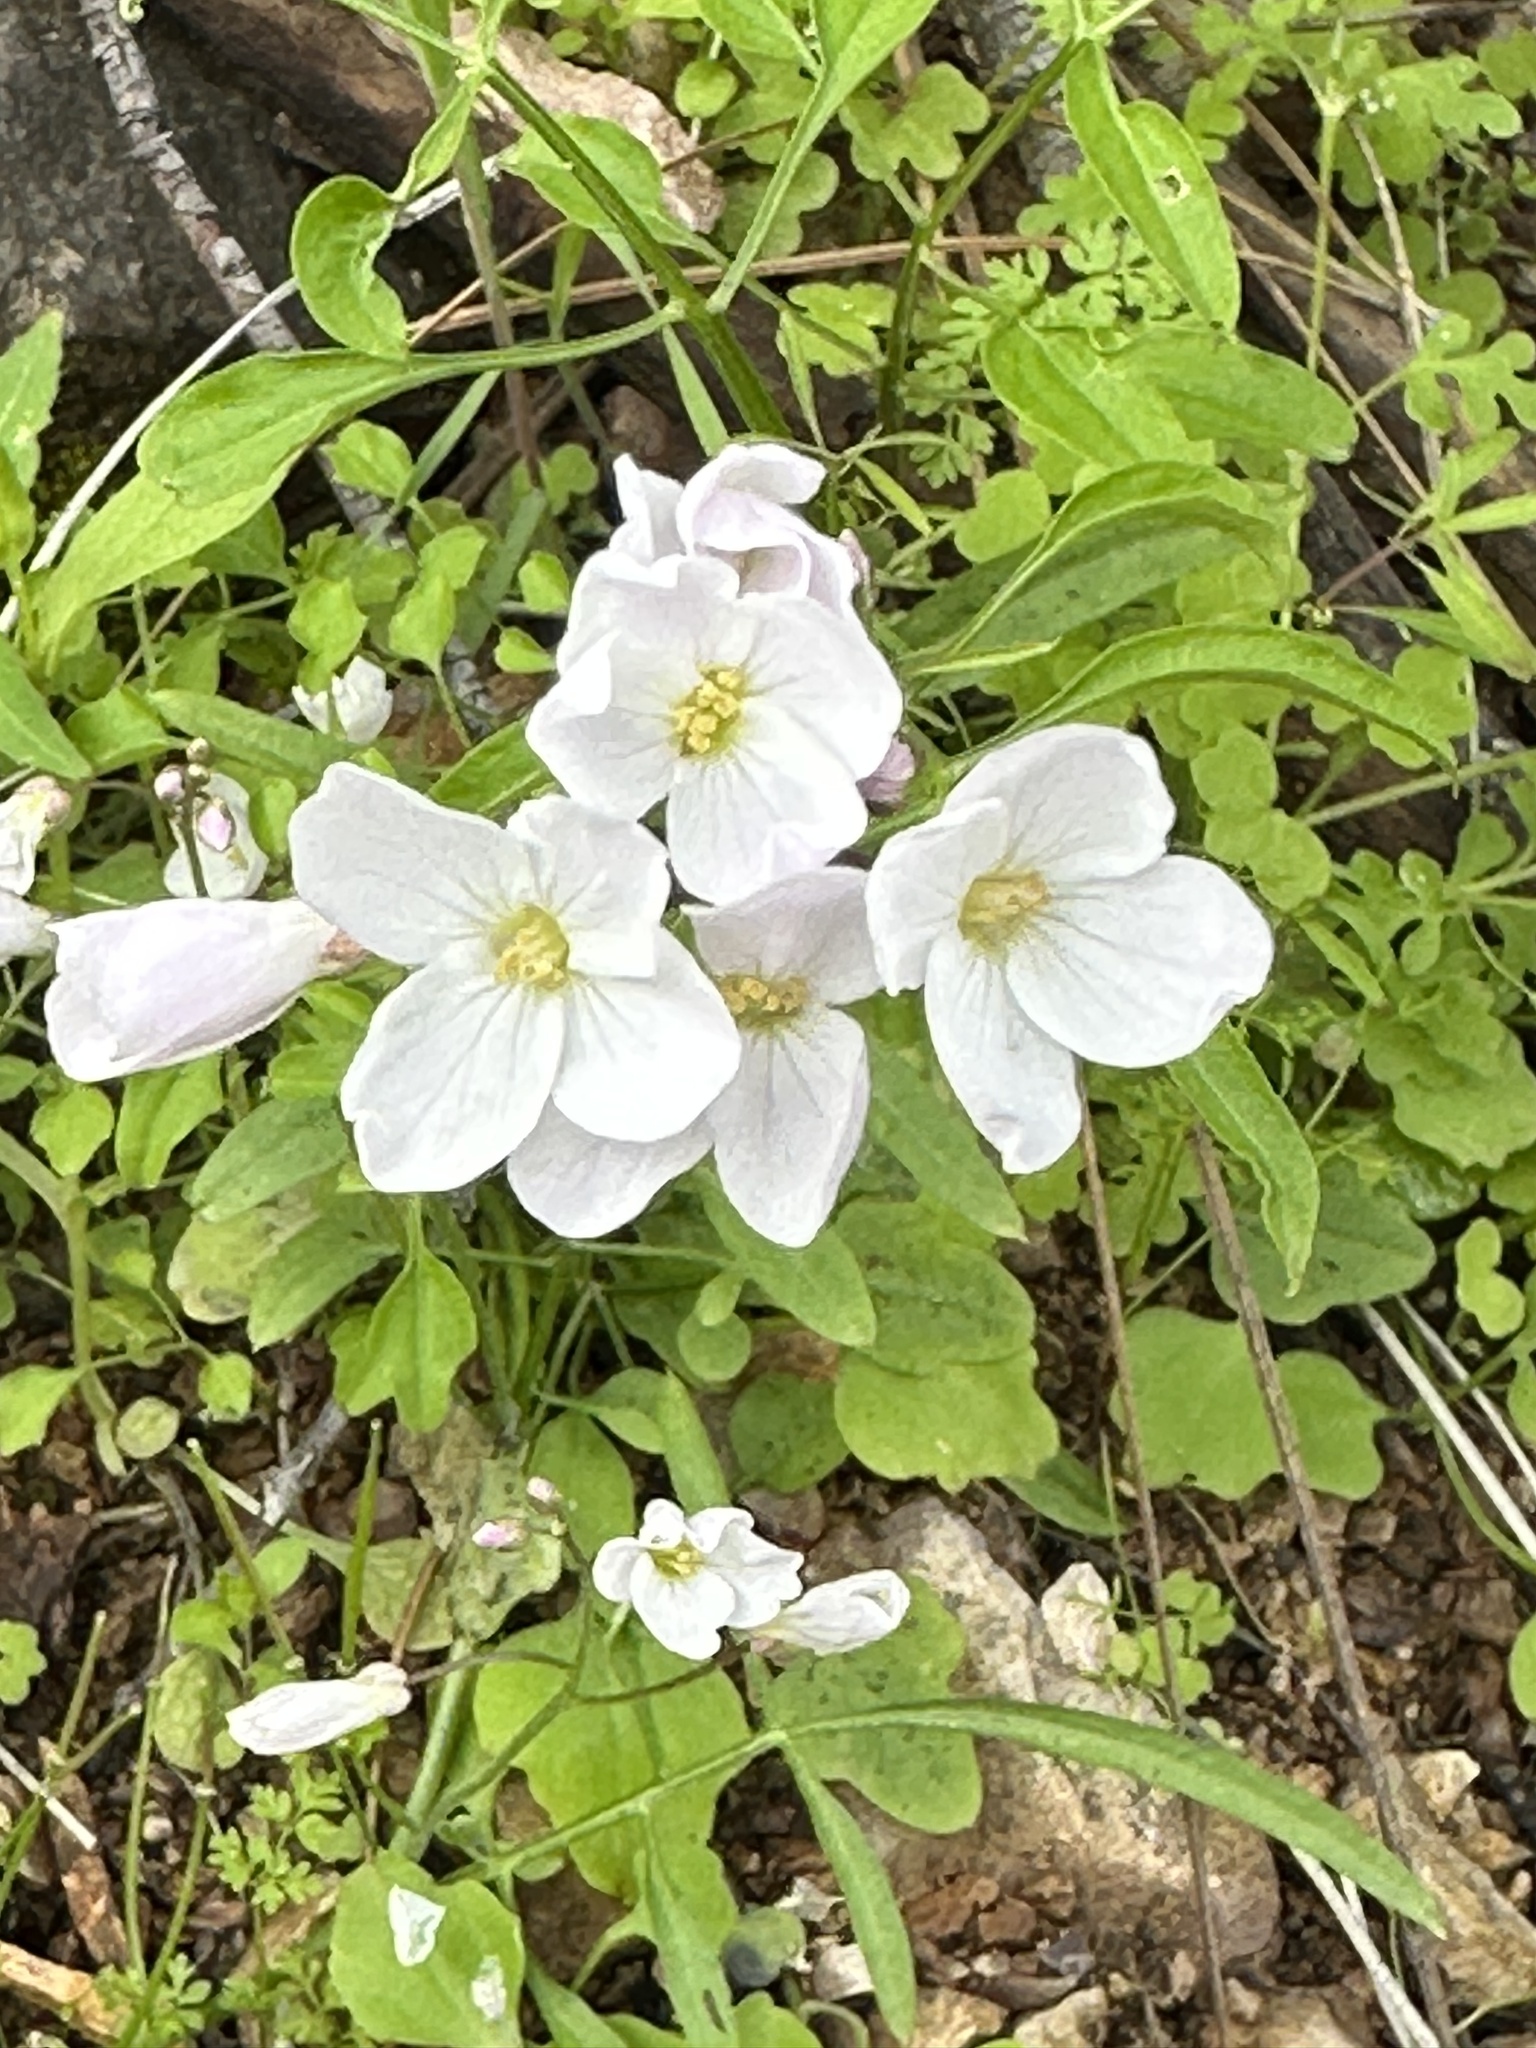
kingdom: Plantae
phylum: Tracheophyta
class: Magnoliopsida
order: Brassicales
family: Brassicaceae
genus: Cardamine
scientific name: Cardamine californica
